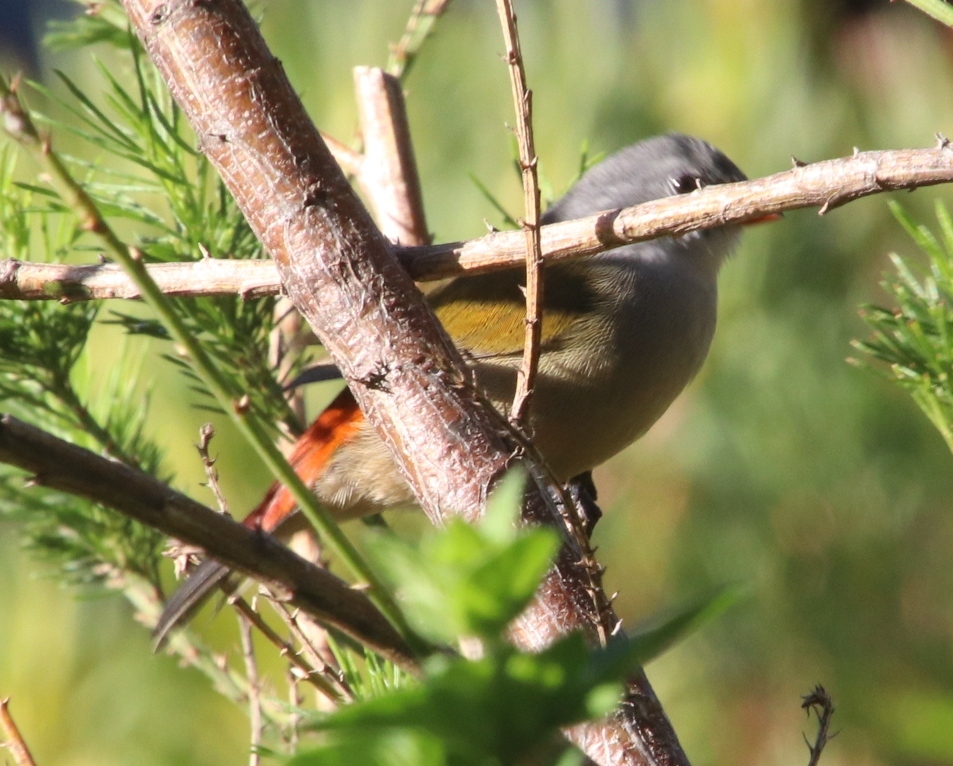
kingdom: Animalia
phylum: Chordata
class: Aves
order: Passeriformes
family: Estrildidae
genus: Coccopygia
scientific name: Coccopygia melanotis
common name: Swee waxbill
